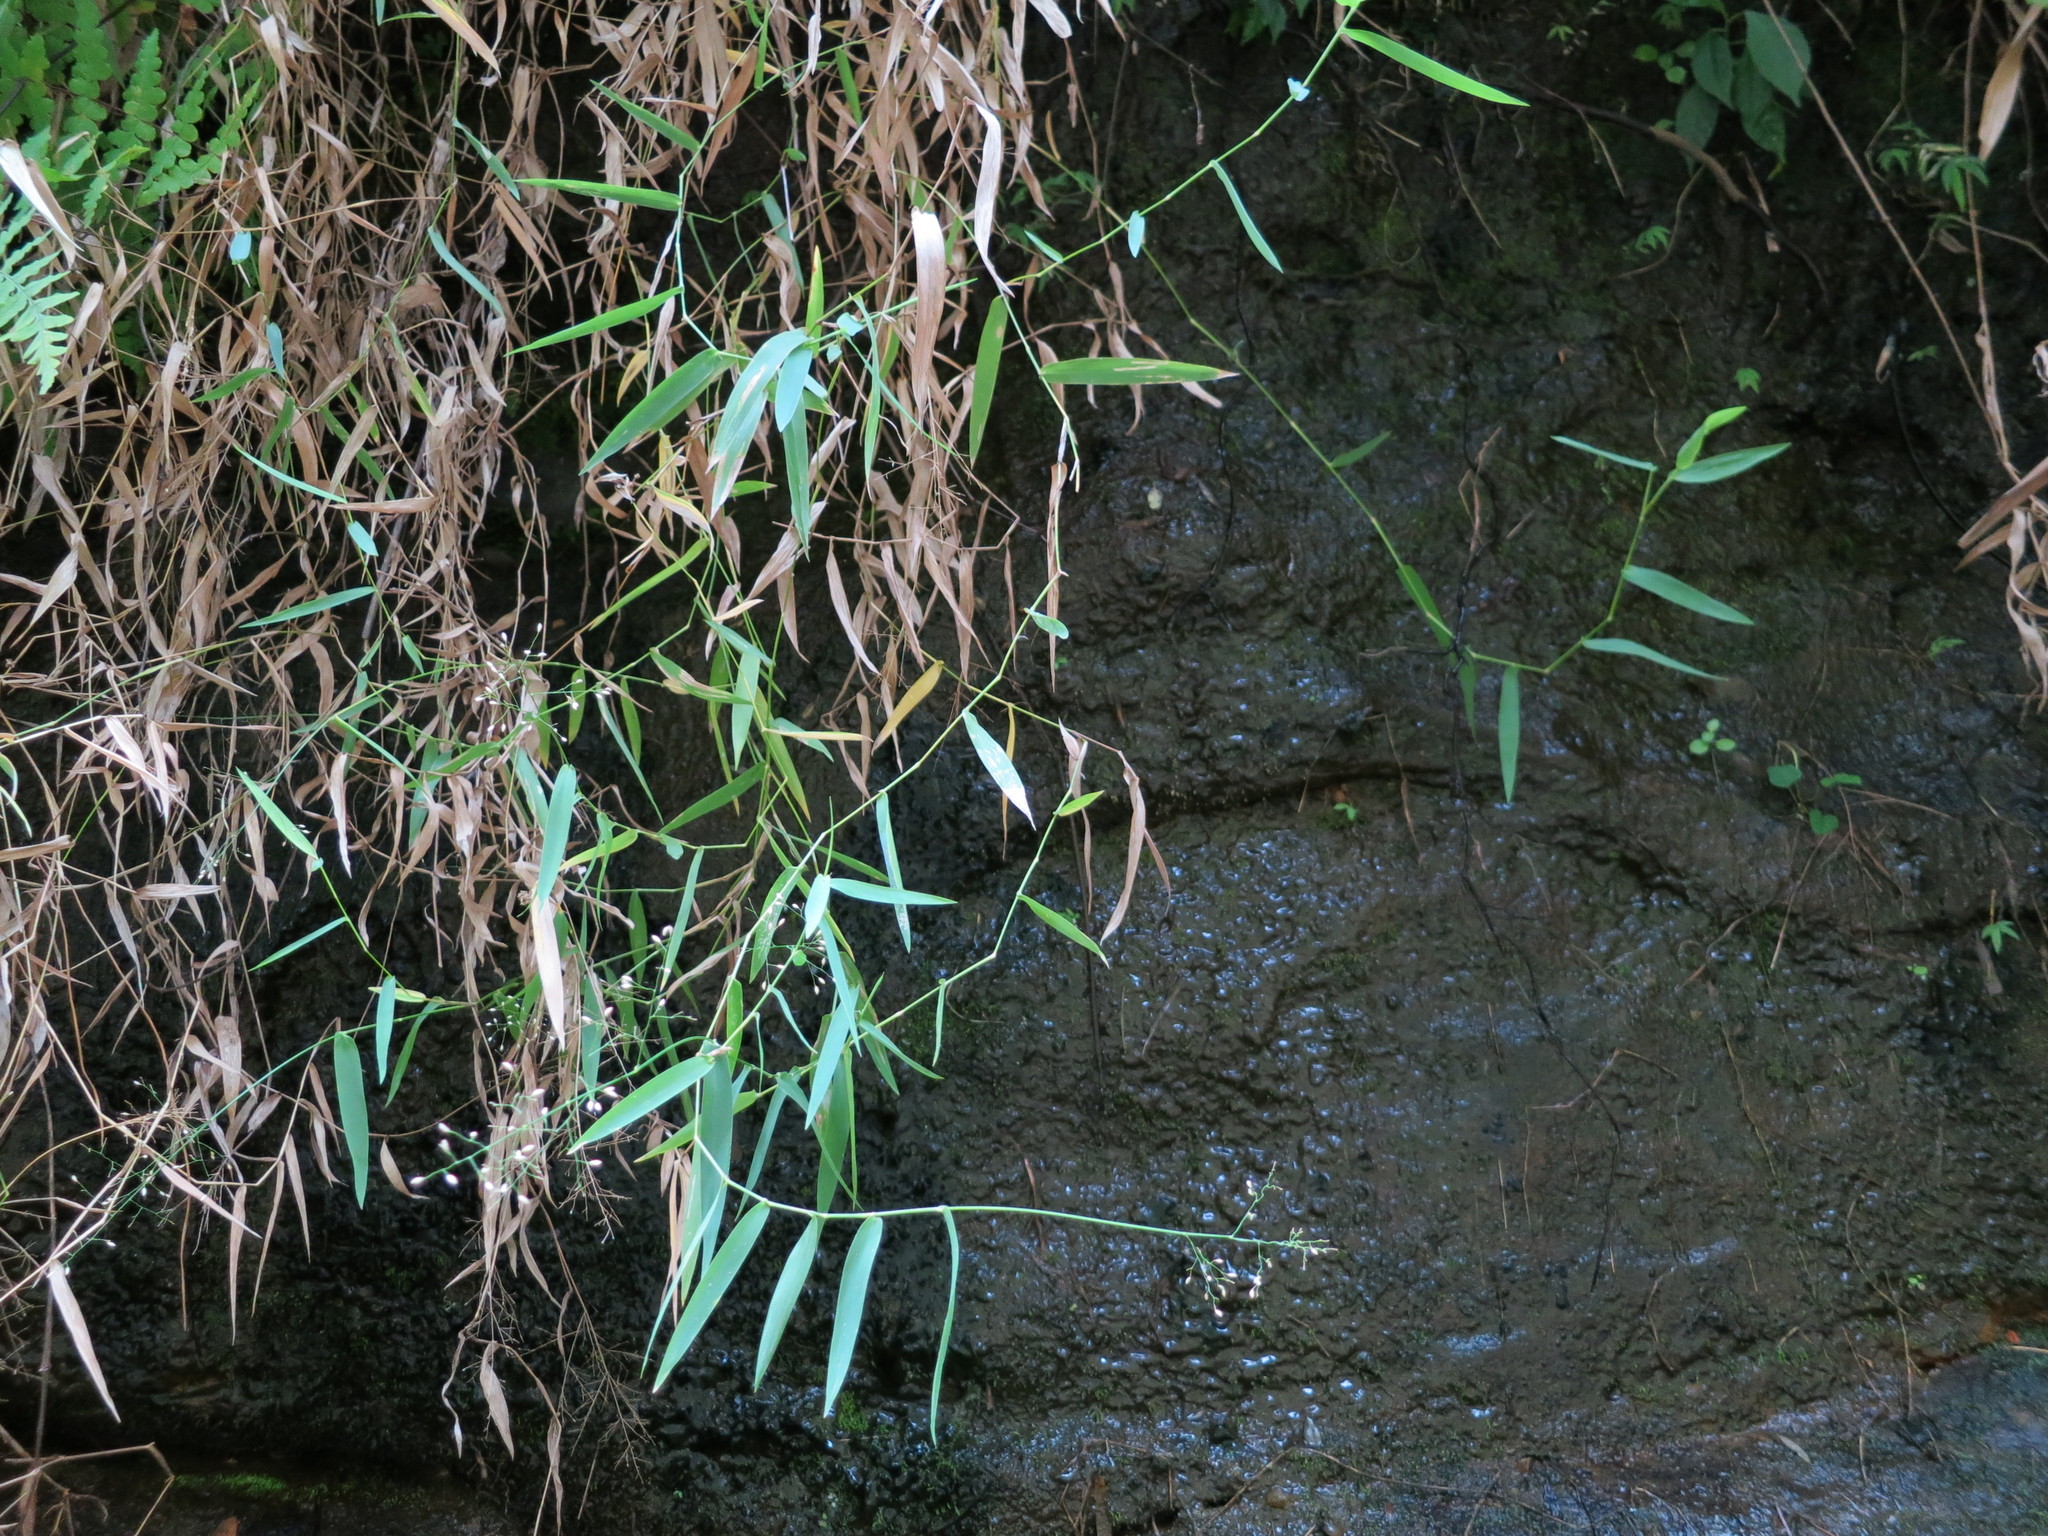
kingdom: Plantae
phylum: Tracheophyta
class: Liliopsida
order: Poales
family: Poaceae
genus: Panicum
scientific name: Panicum andringitrense
